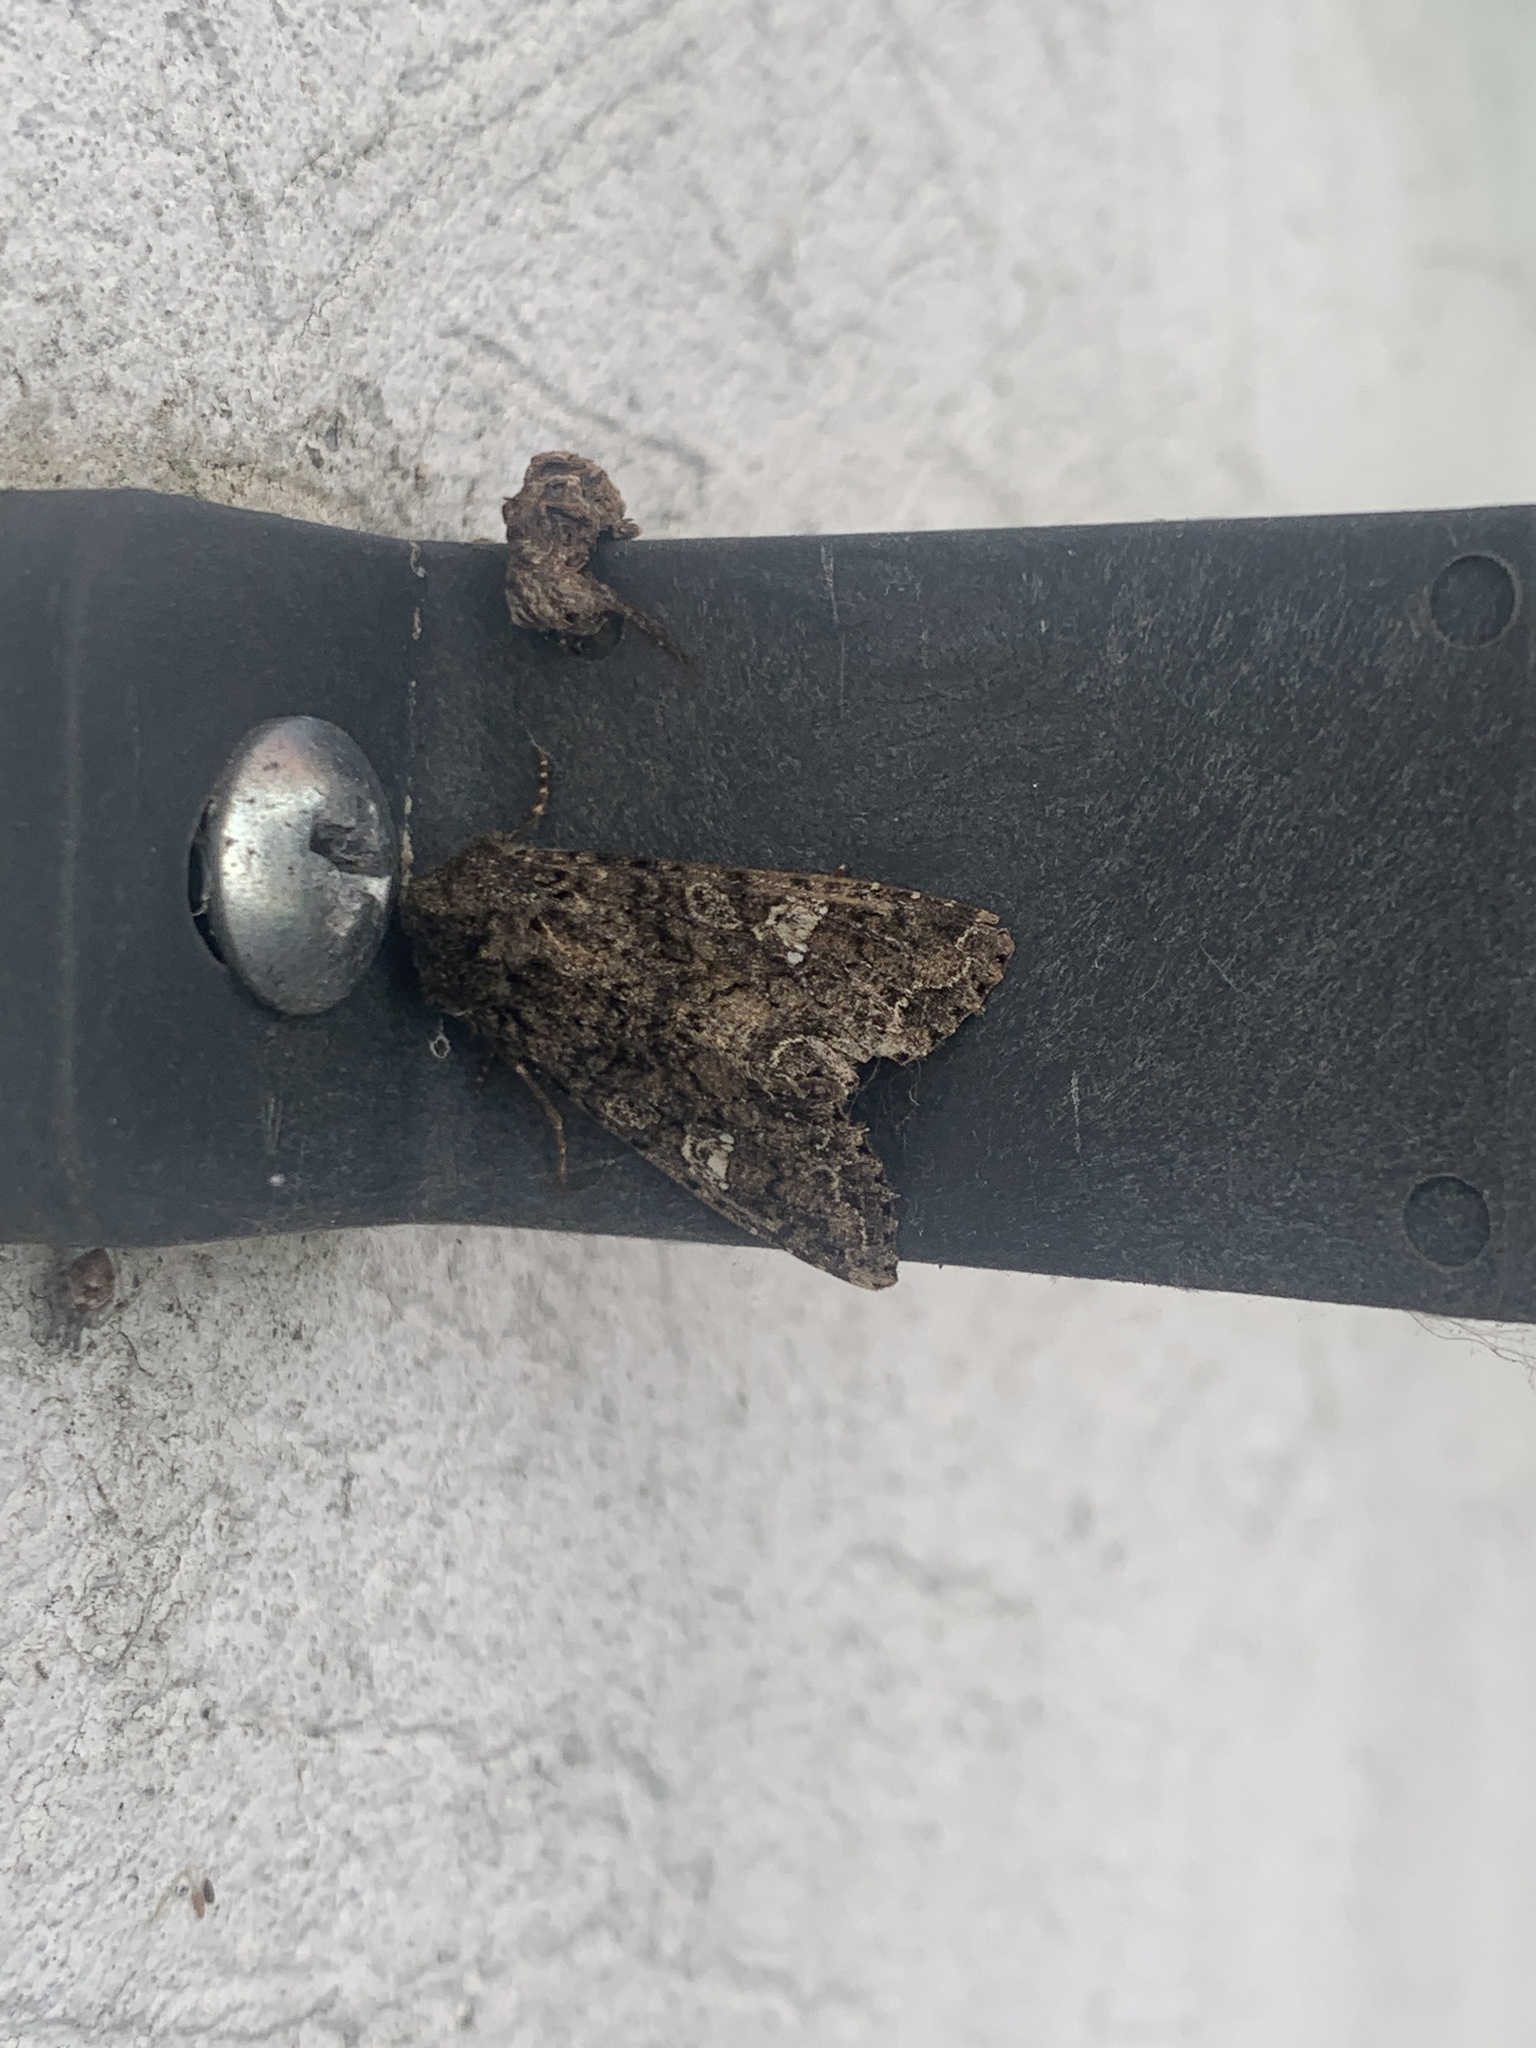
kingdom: Animalia
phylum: Arthropoda
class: Insecta
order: Lepidoptera
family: Noctuidae
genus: Mamestra
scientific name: Mamestra brassicae
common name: Cabbage moth
